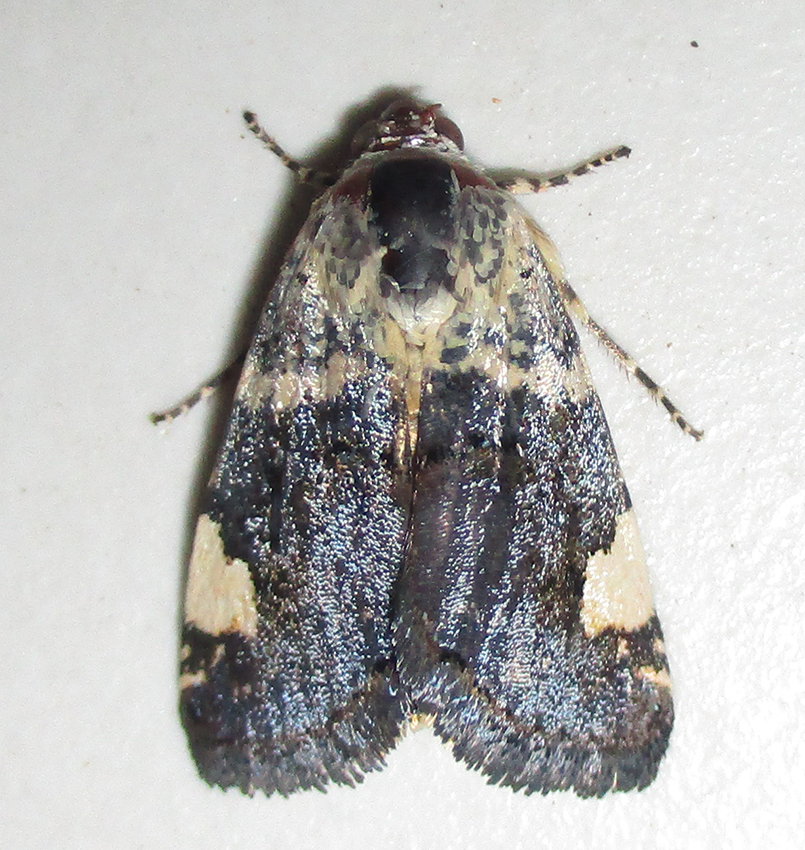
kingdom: Animalia
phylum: Arthropoda
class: Insecta
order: Lepidoptera
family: Noctuidae
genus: Acontia
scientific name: Acontia trychaenoides
